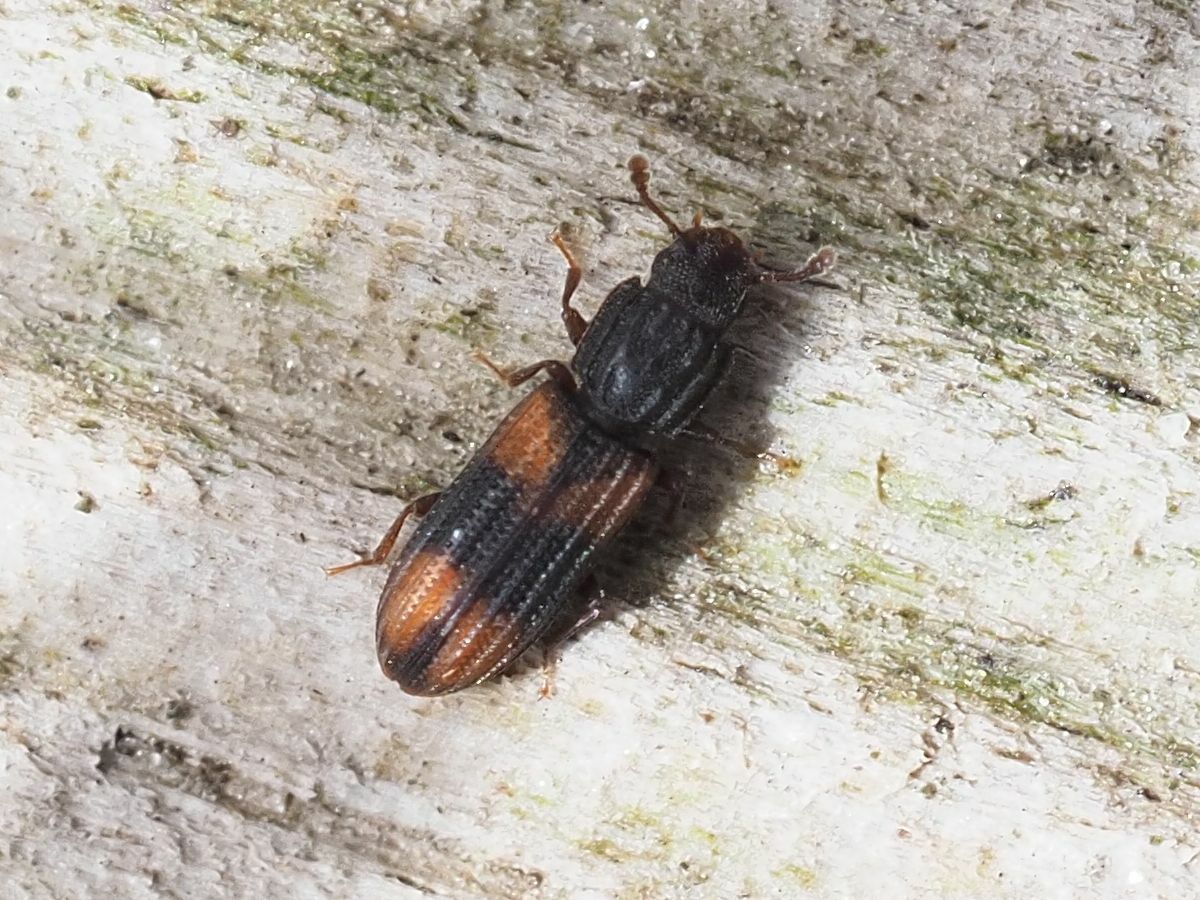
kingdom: Animalia
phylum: Arthropoda
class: Insecta
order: Coleoptera
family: Zopheridae
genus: Bitoma
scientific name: Bitoma crenata
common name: Bark beetle
